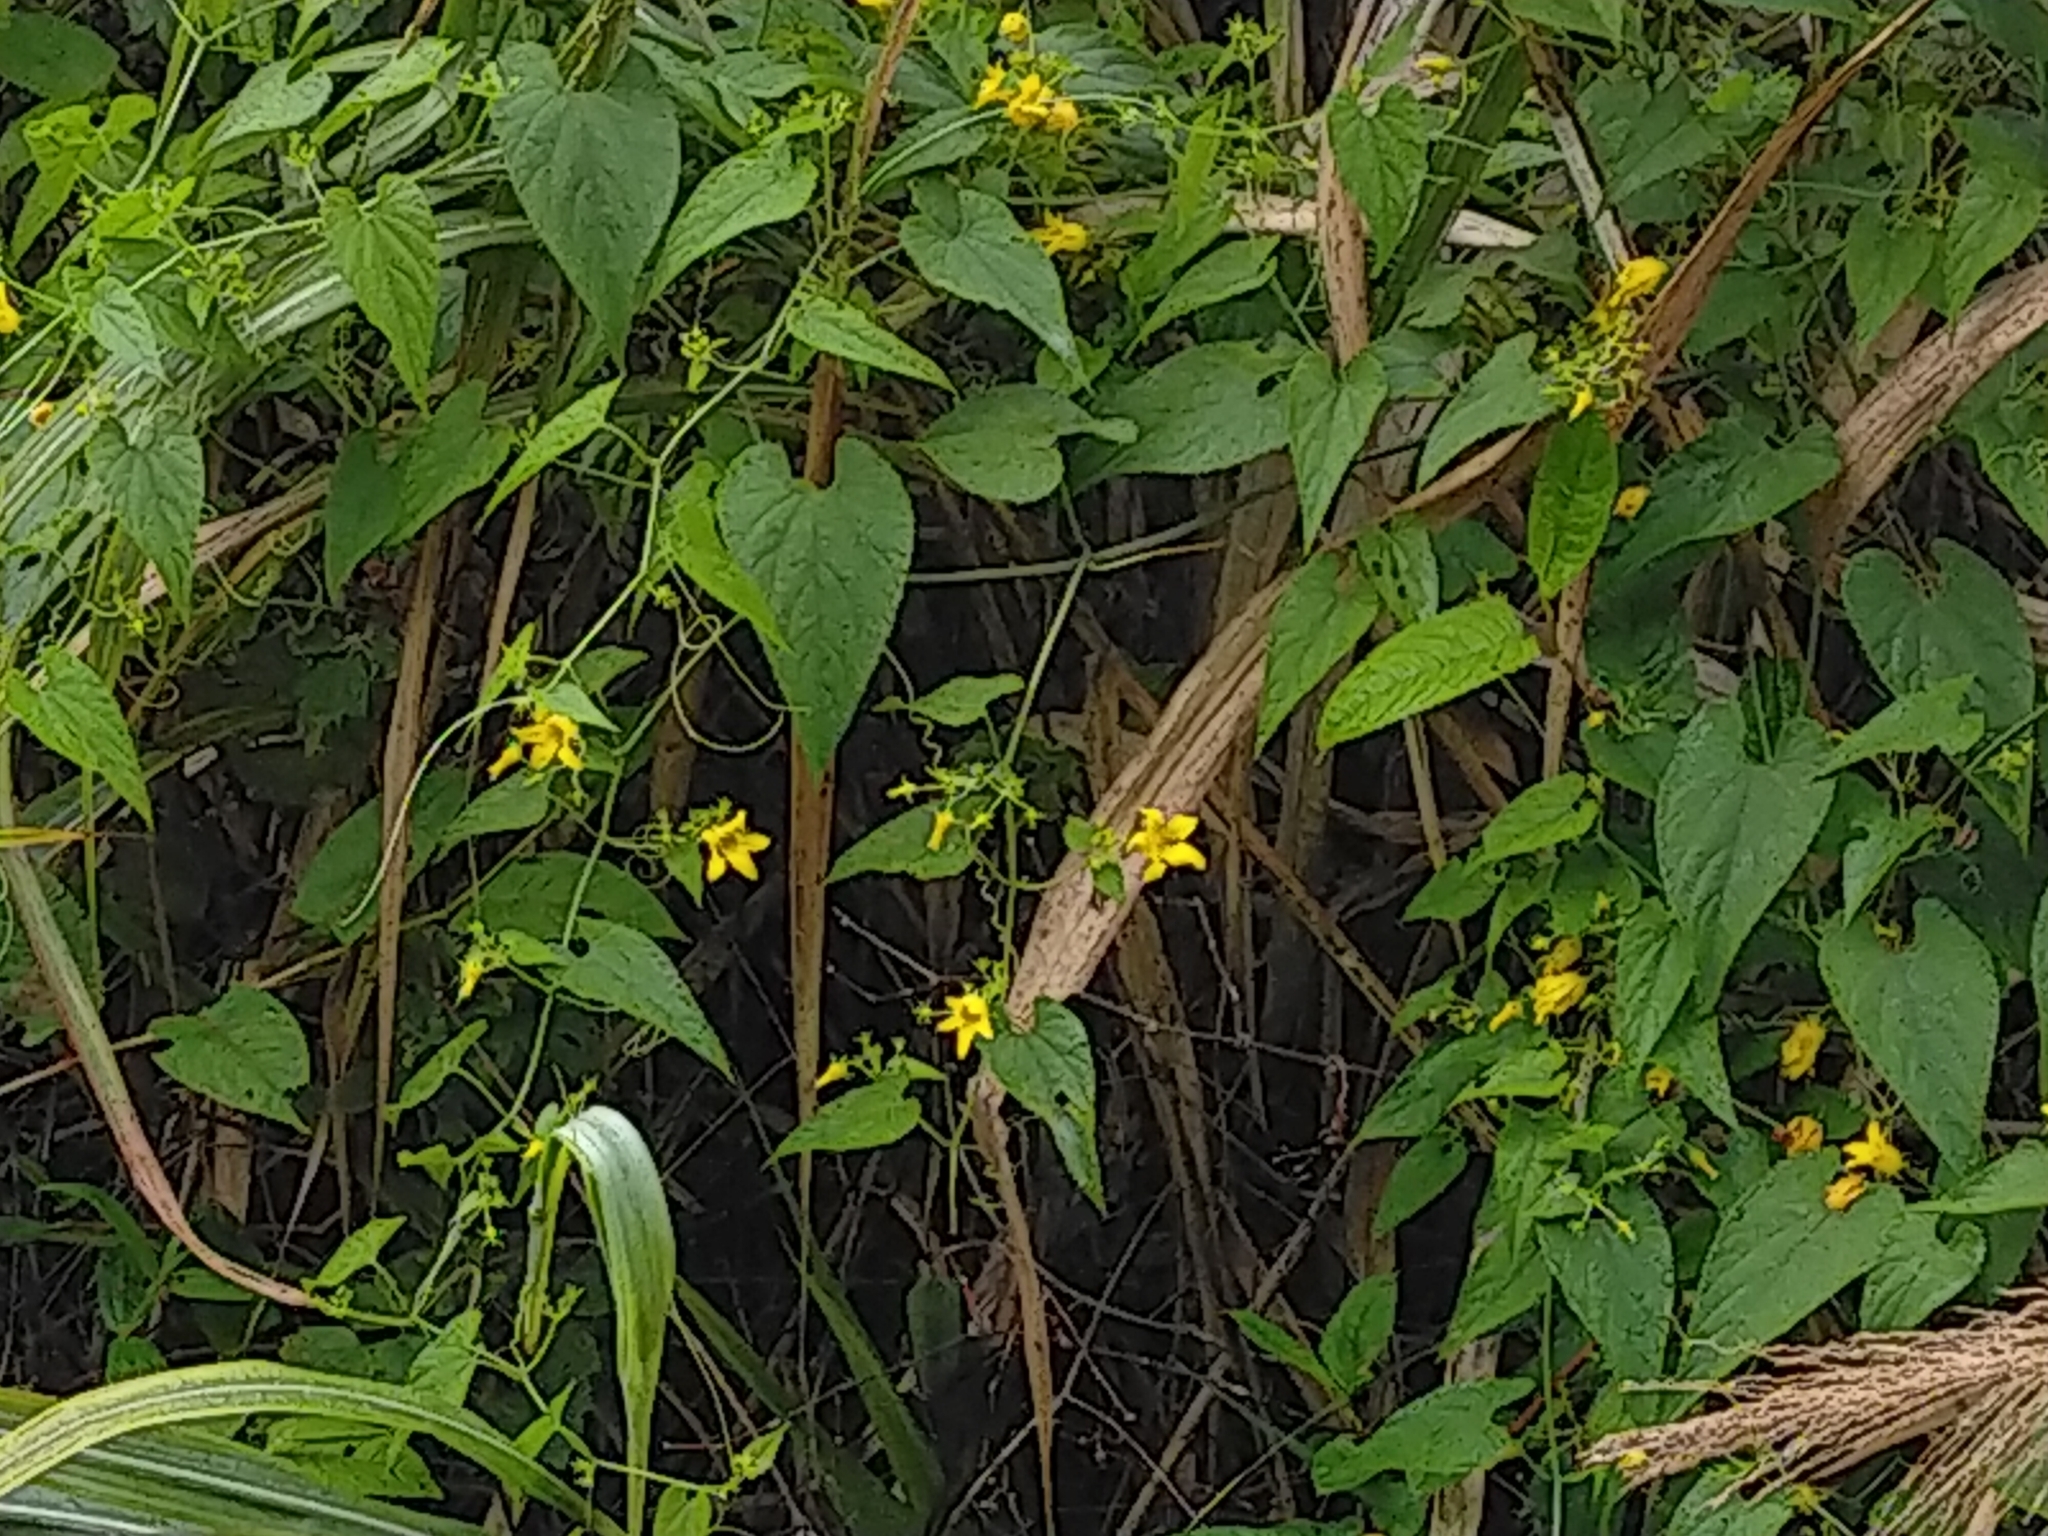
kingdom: Plantae
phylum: Tracheophyta
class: Magnoliopsida
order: Cucurbitales
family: Cucurbitaceae
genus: Thladiantha
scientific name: Thladiantha punctata
